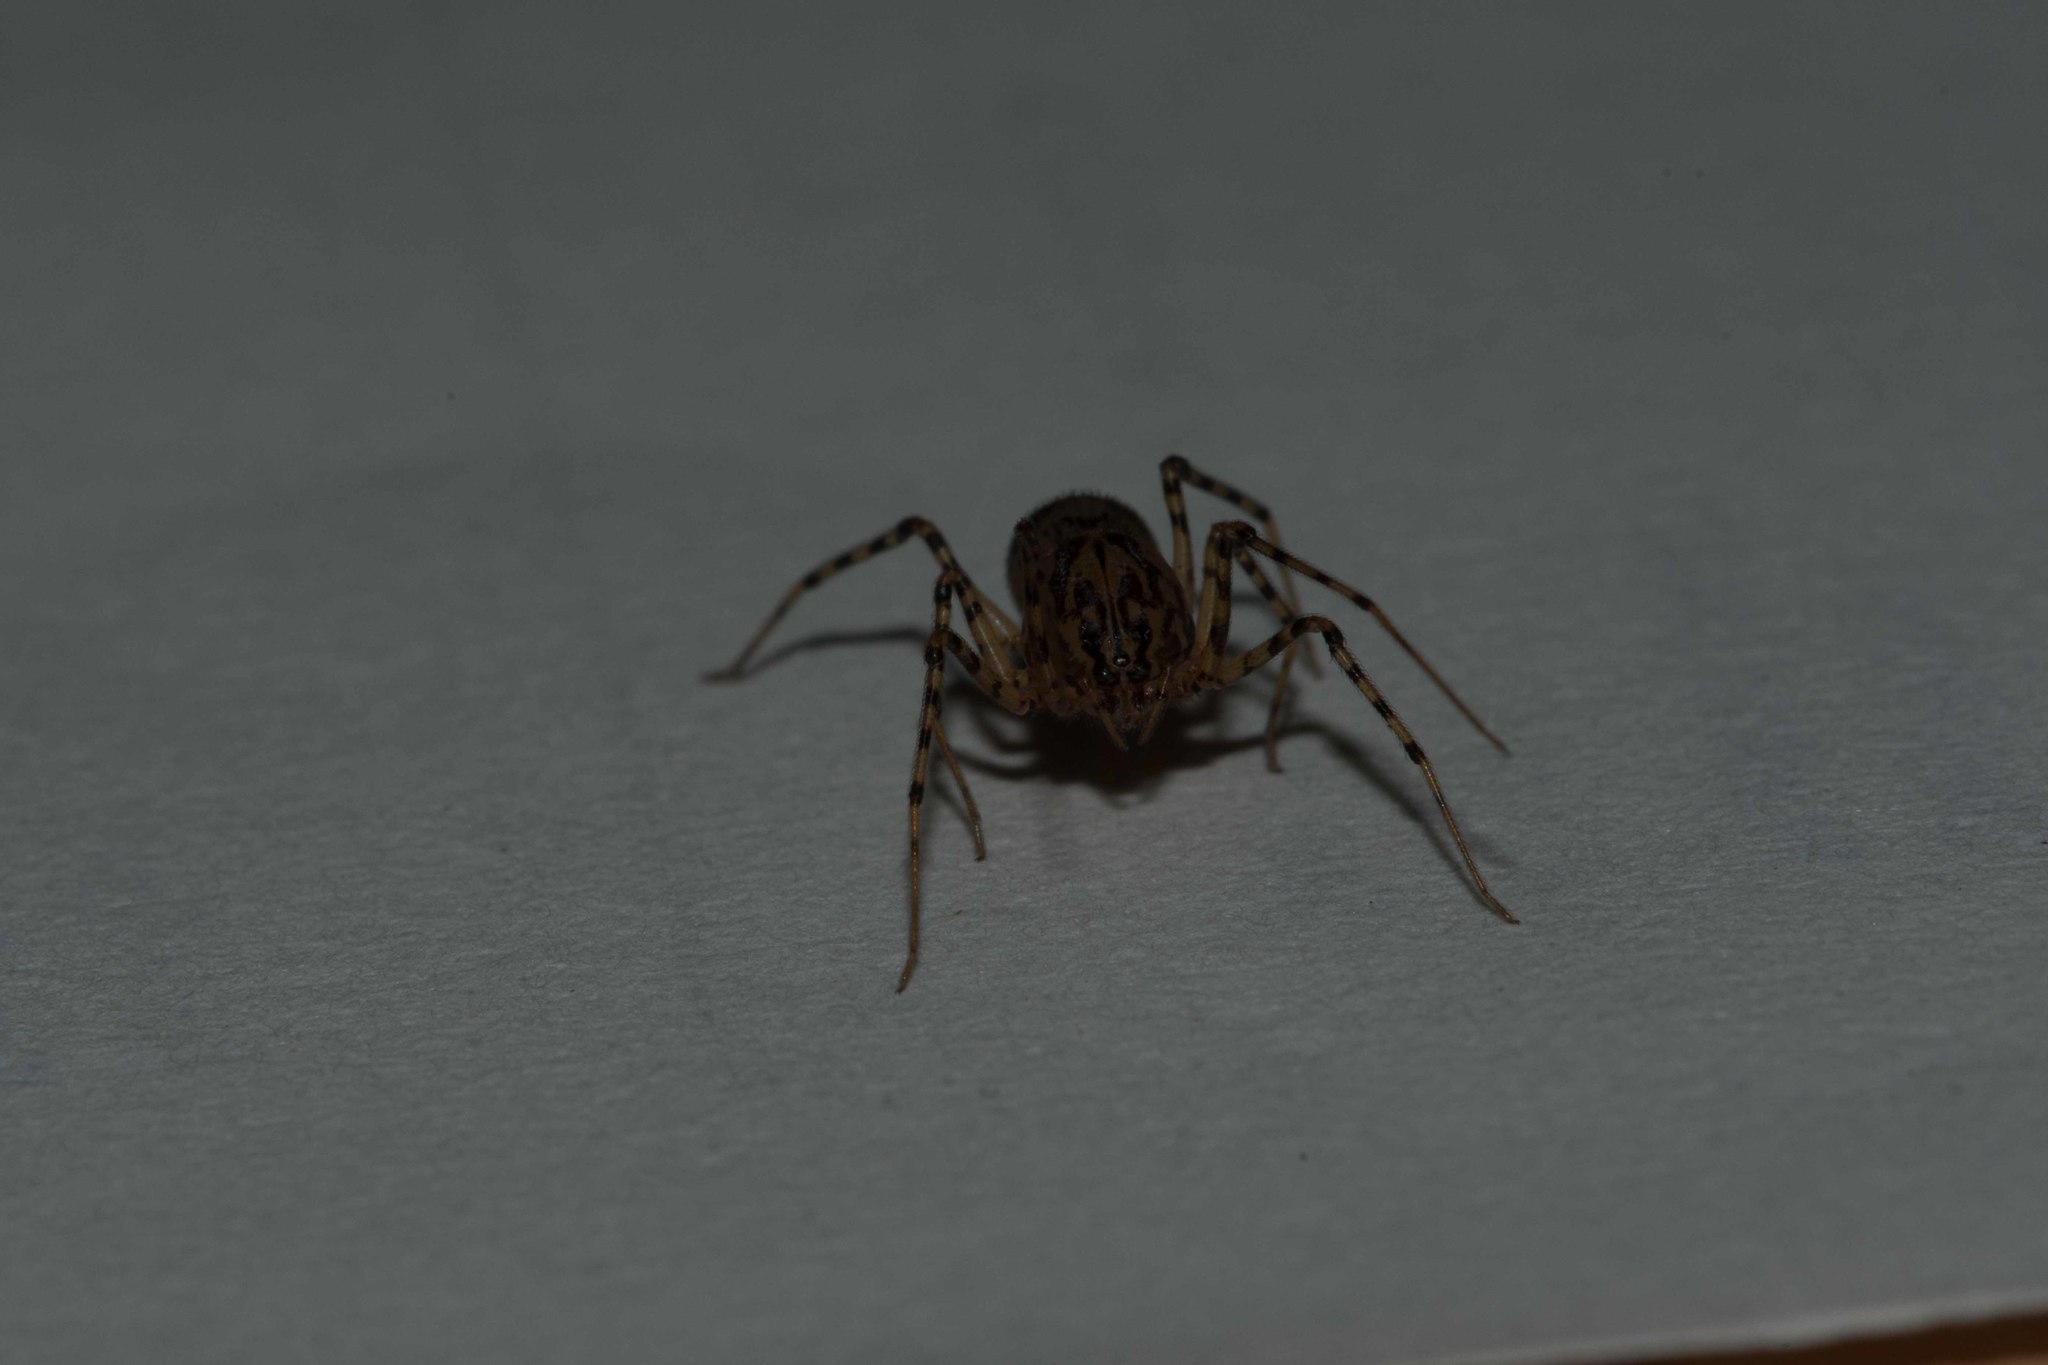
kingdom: Animalia
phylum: Arthropoda
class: Arachnida
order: Araneae
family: Scytodidae
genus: Scytodes
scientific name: Scytodes thoracica
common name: Spitting spider
